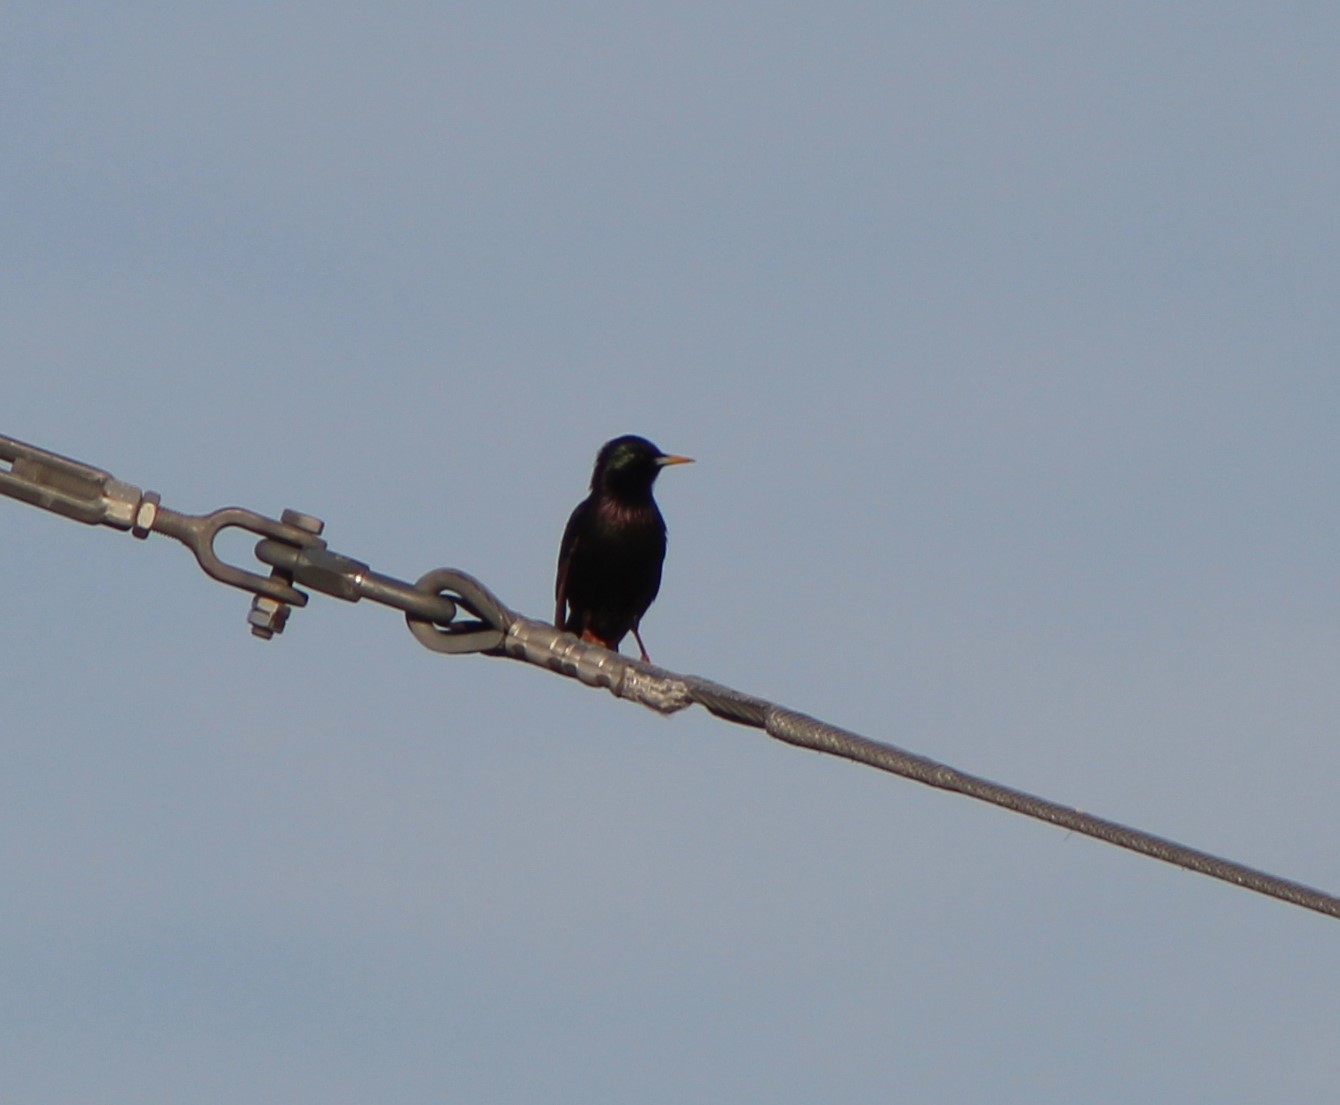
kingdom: Animalia
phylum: Chordata
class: Aves
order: Passeriformes
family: Sturnidae
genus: Sturnus
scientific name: Sturnus vulgaris
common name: Common starling
